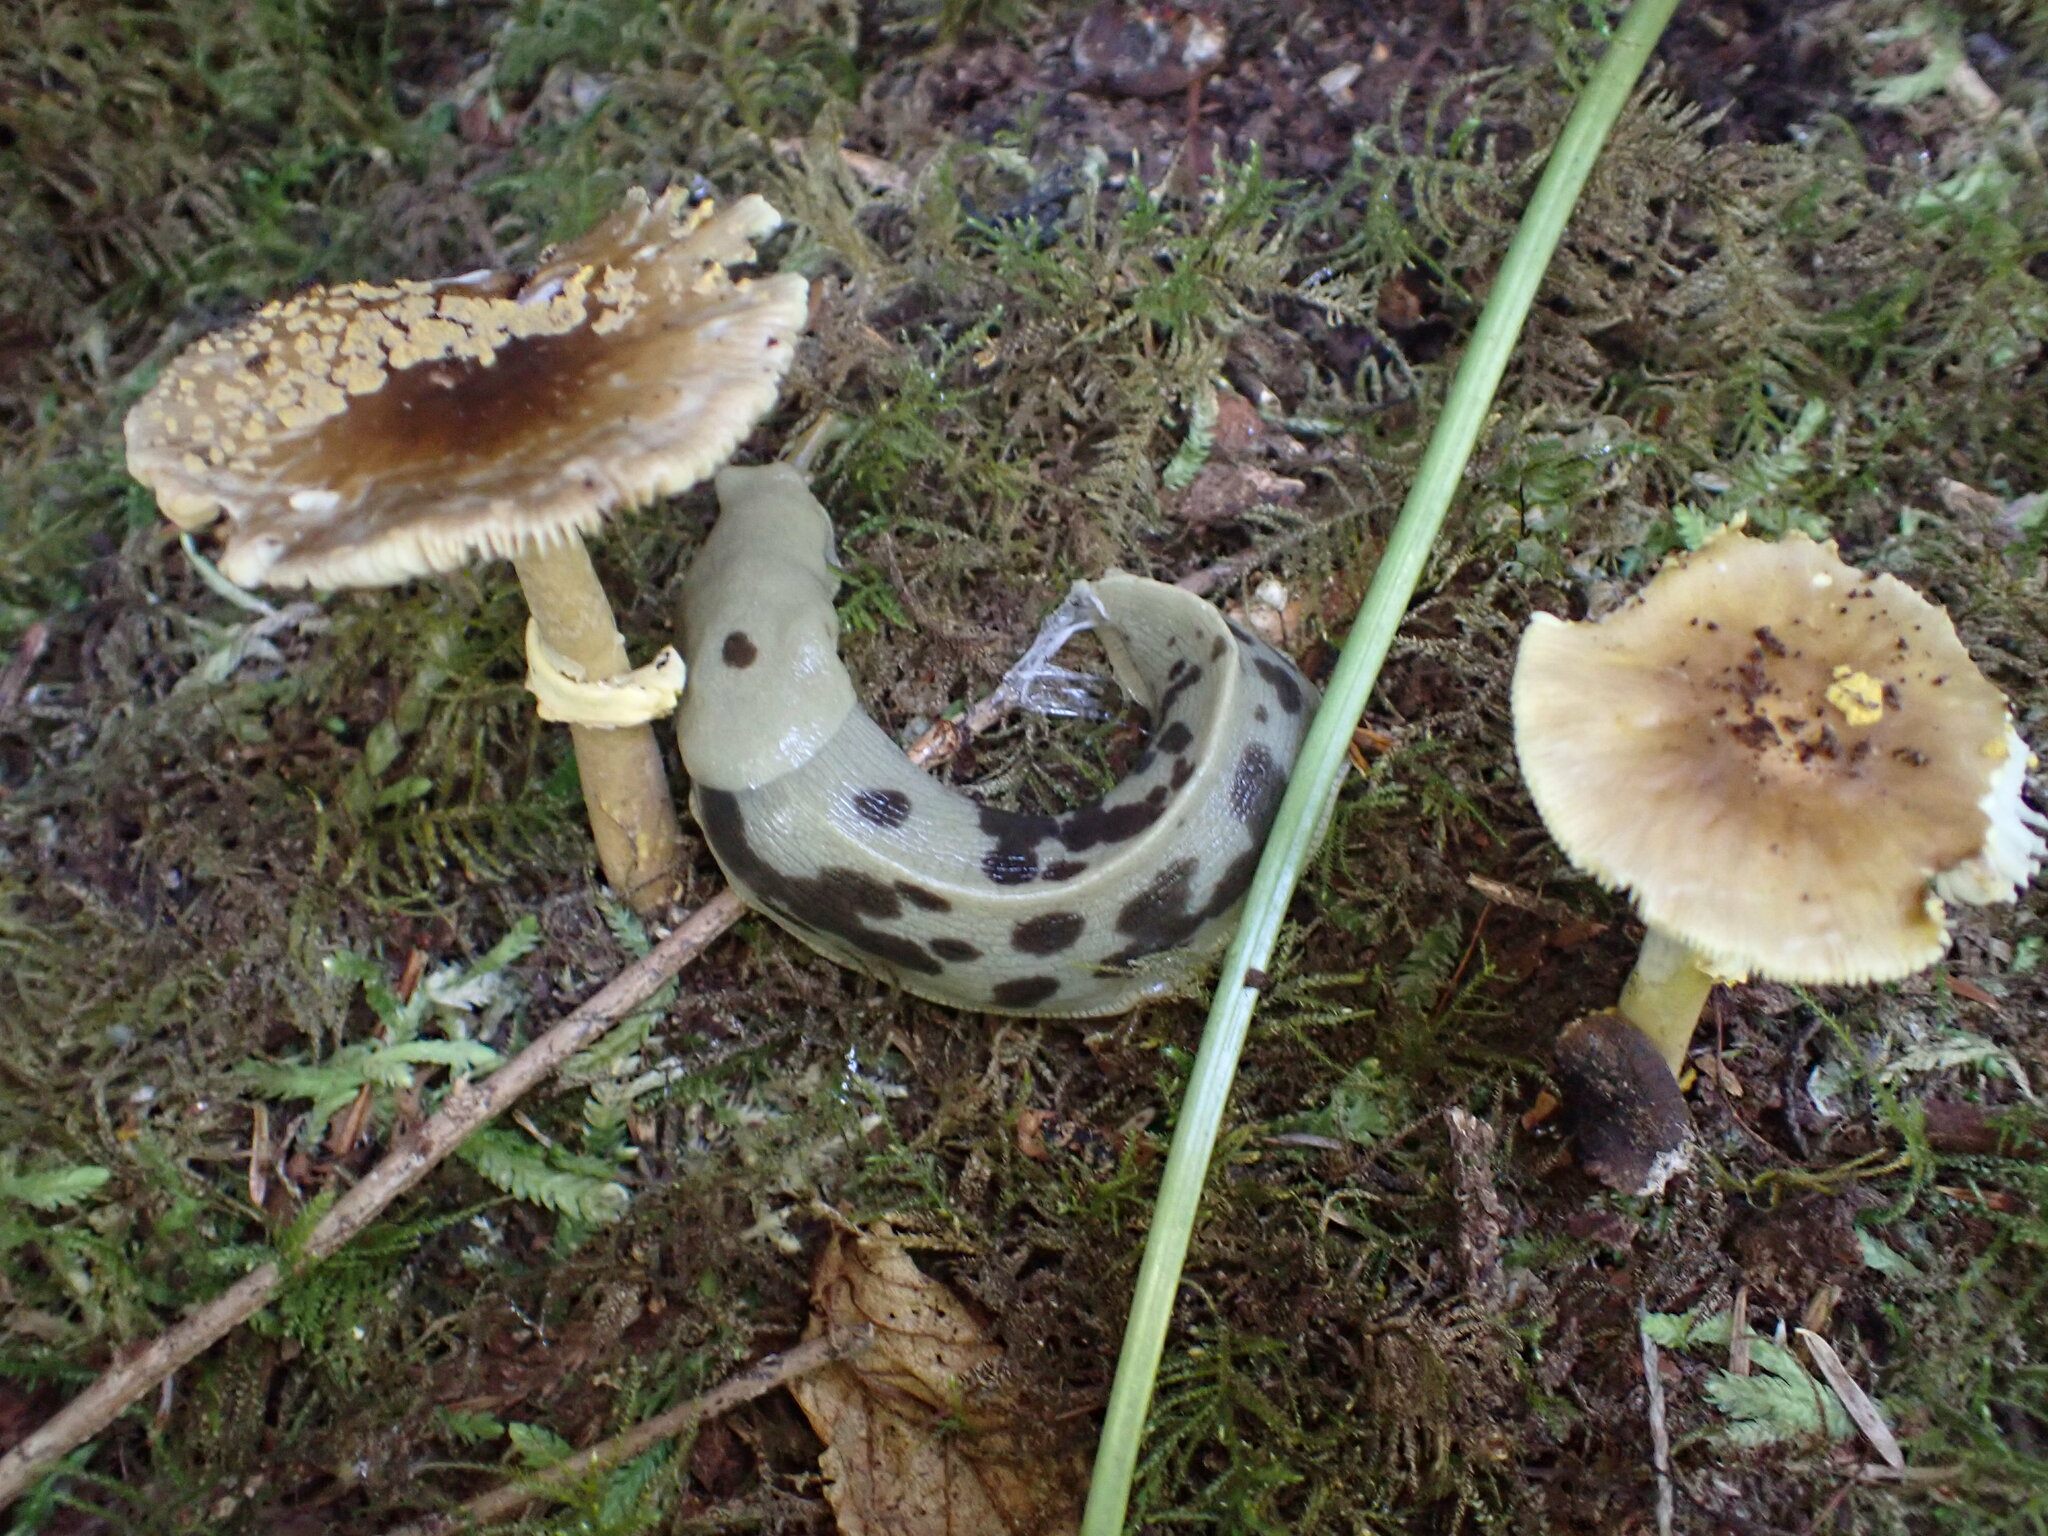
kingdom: Animalia
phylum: Mollusca
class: Gastropoda
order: Stylommatophora
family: Ariolimacidae
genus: Ariolimax
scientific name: Ariolimax columbianus
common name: Pacific banana slug
